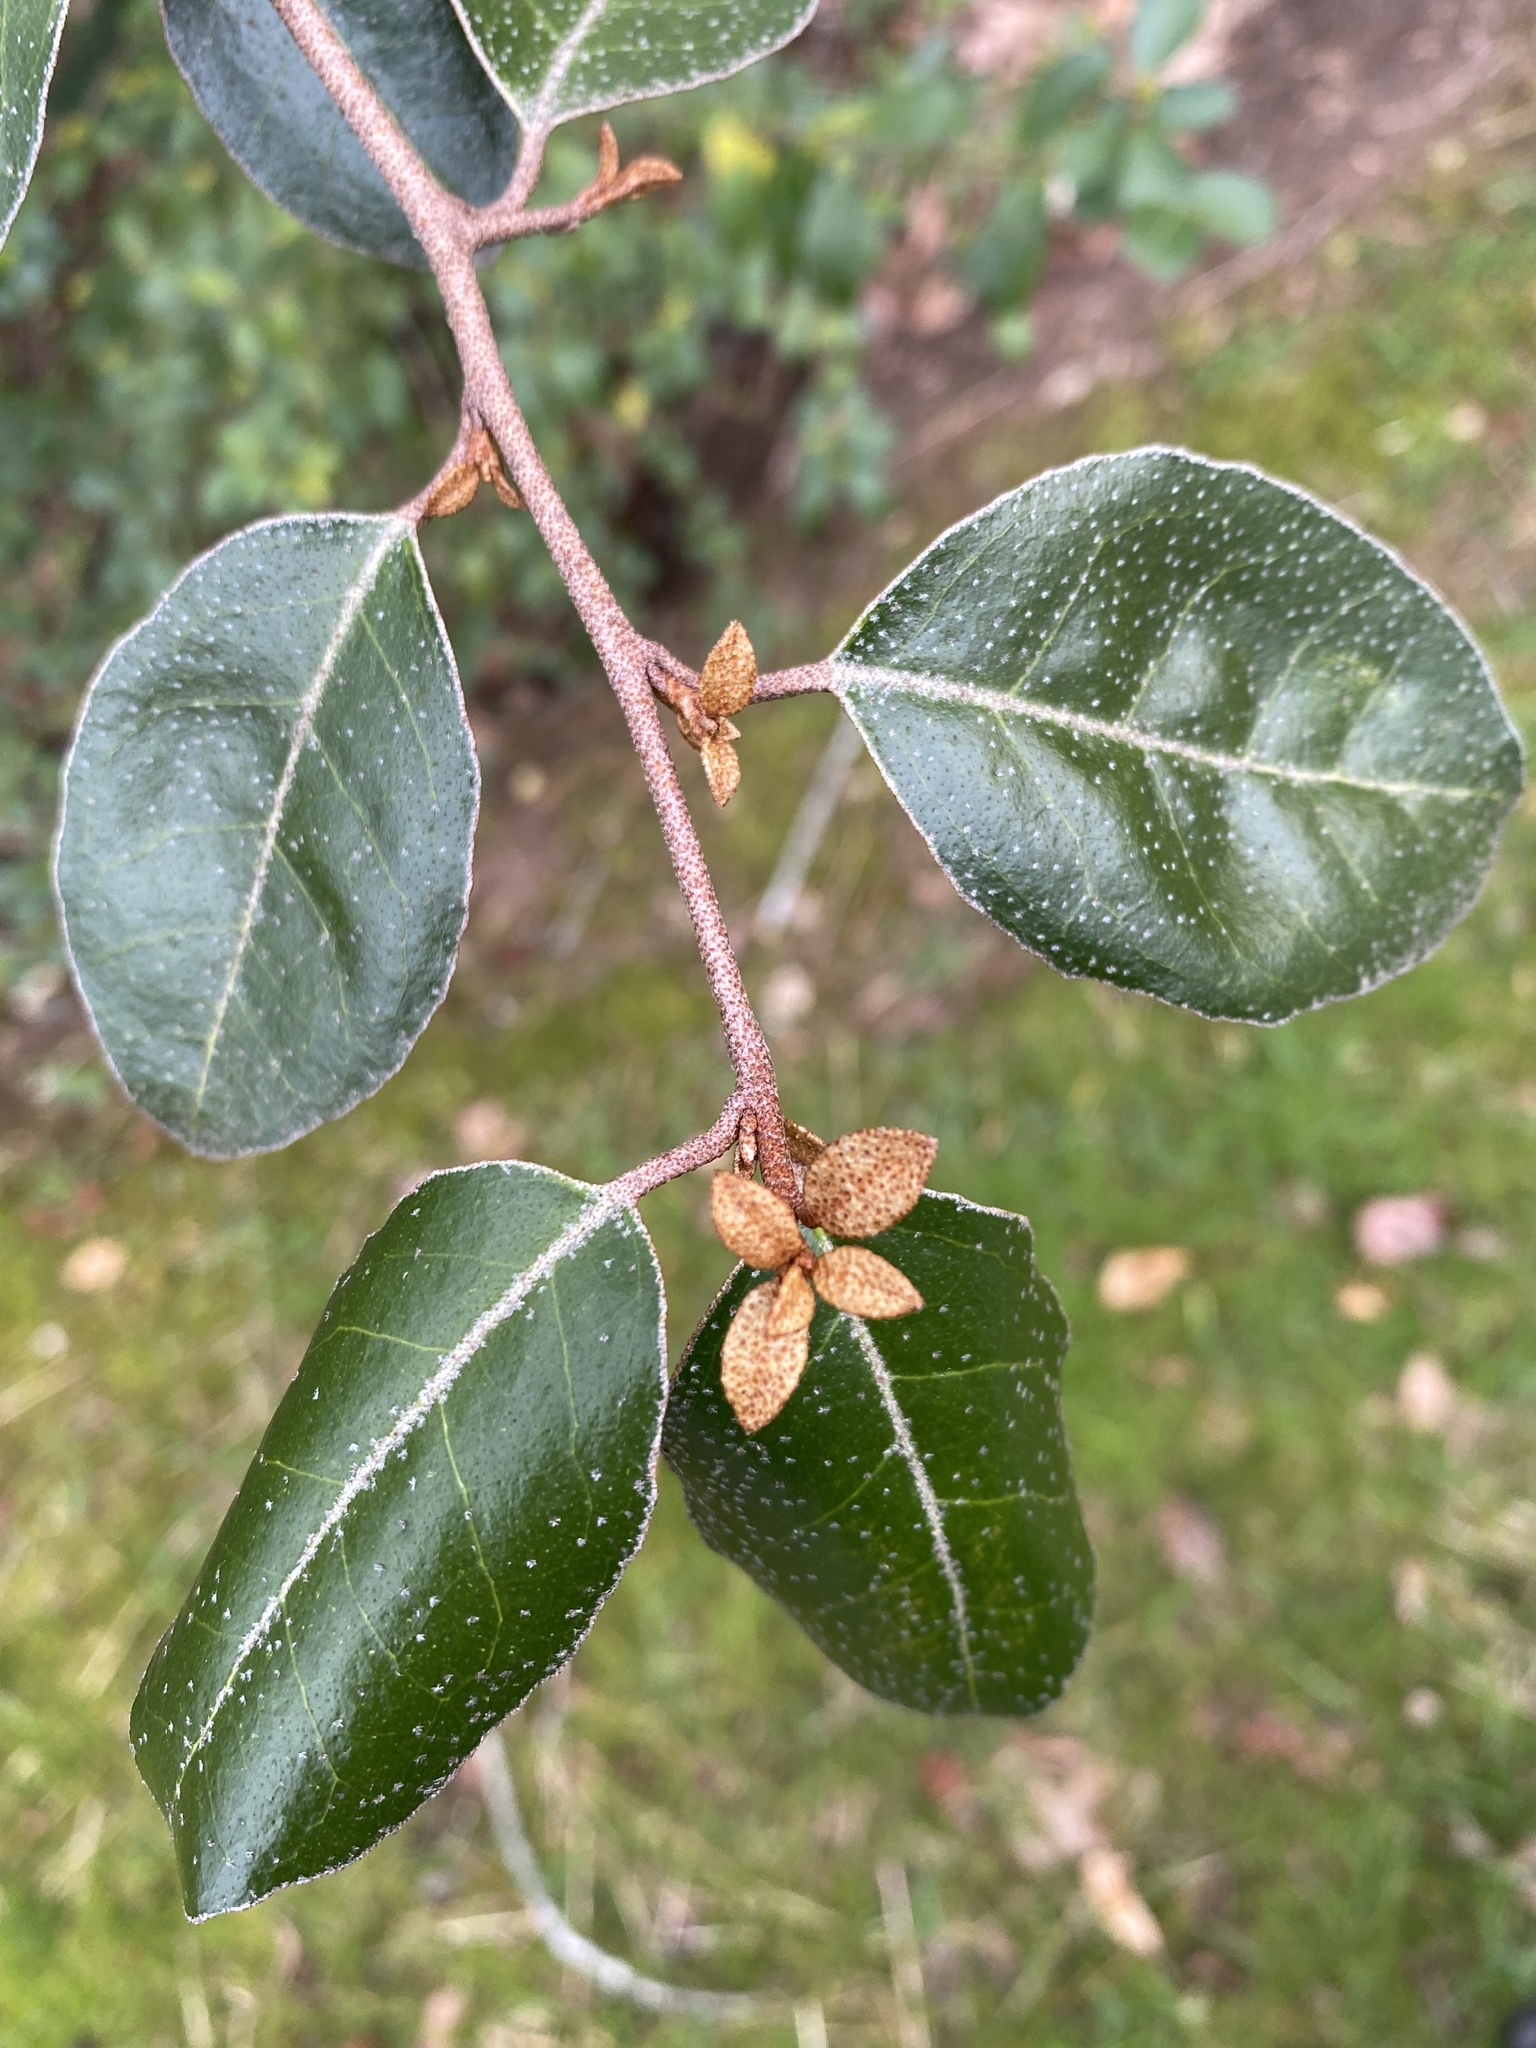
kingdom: Plantae
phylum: Tracheophyta
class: Magnoliopsida
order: Rosales
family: Elaeagnaceae
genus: Elaeagnus
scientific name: Elaeagnus pungens
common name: Spiny oleaster
